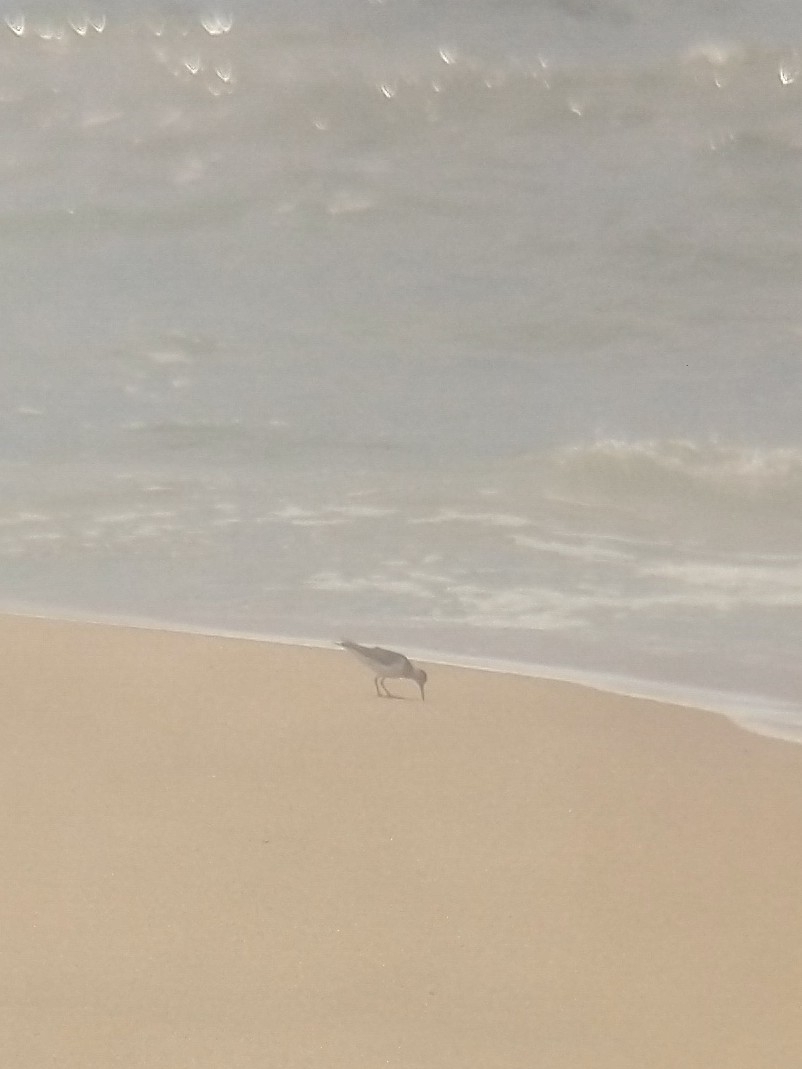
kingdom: Animalia
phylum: Chordata
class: Aves
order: Charadriiformes
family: Scolopacidae
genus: Actitis
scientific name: Actitis hypoleucos
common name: Common sandpiper
